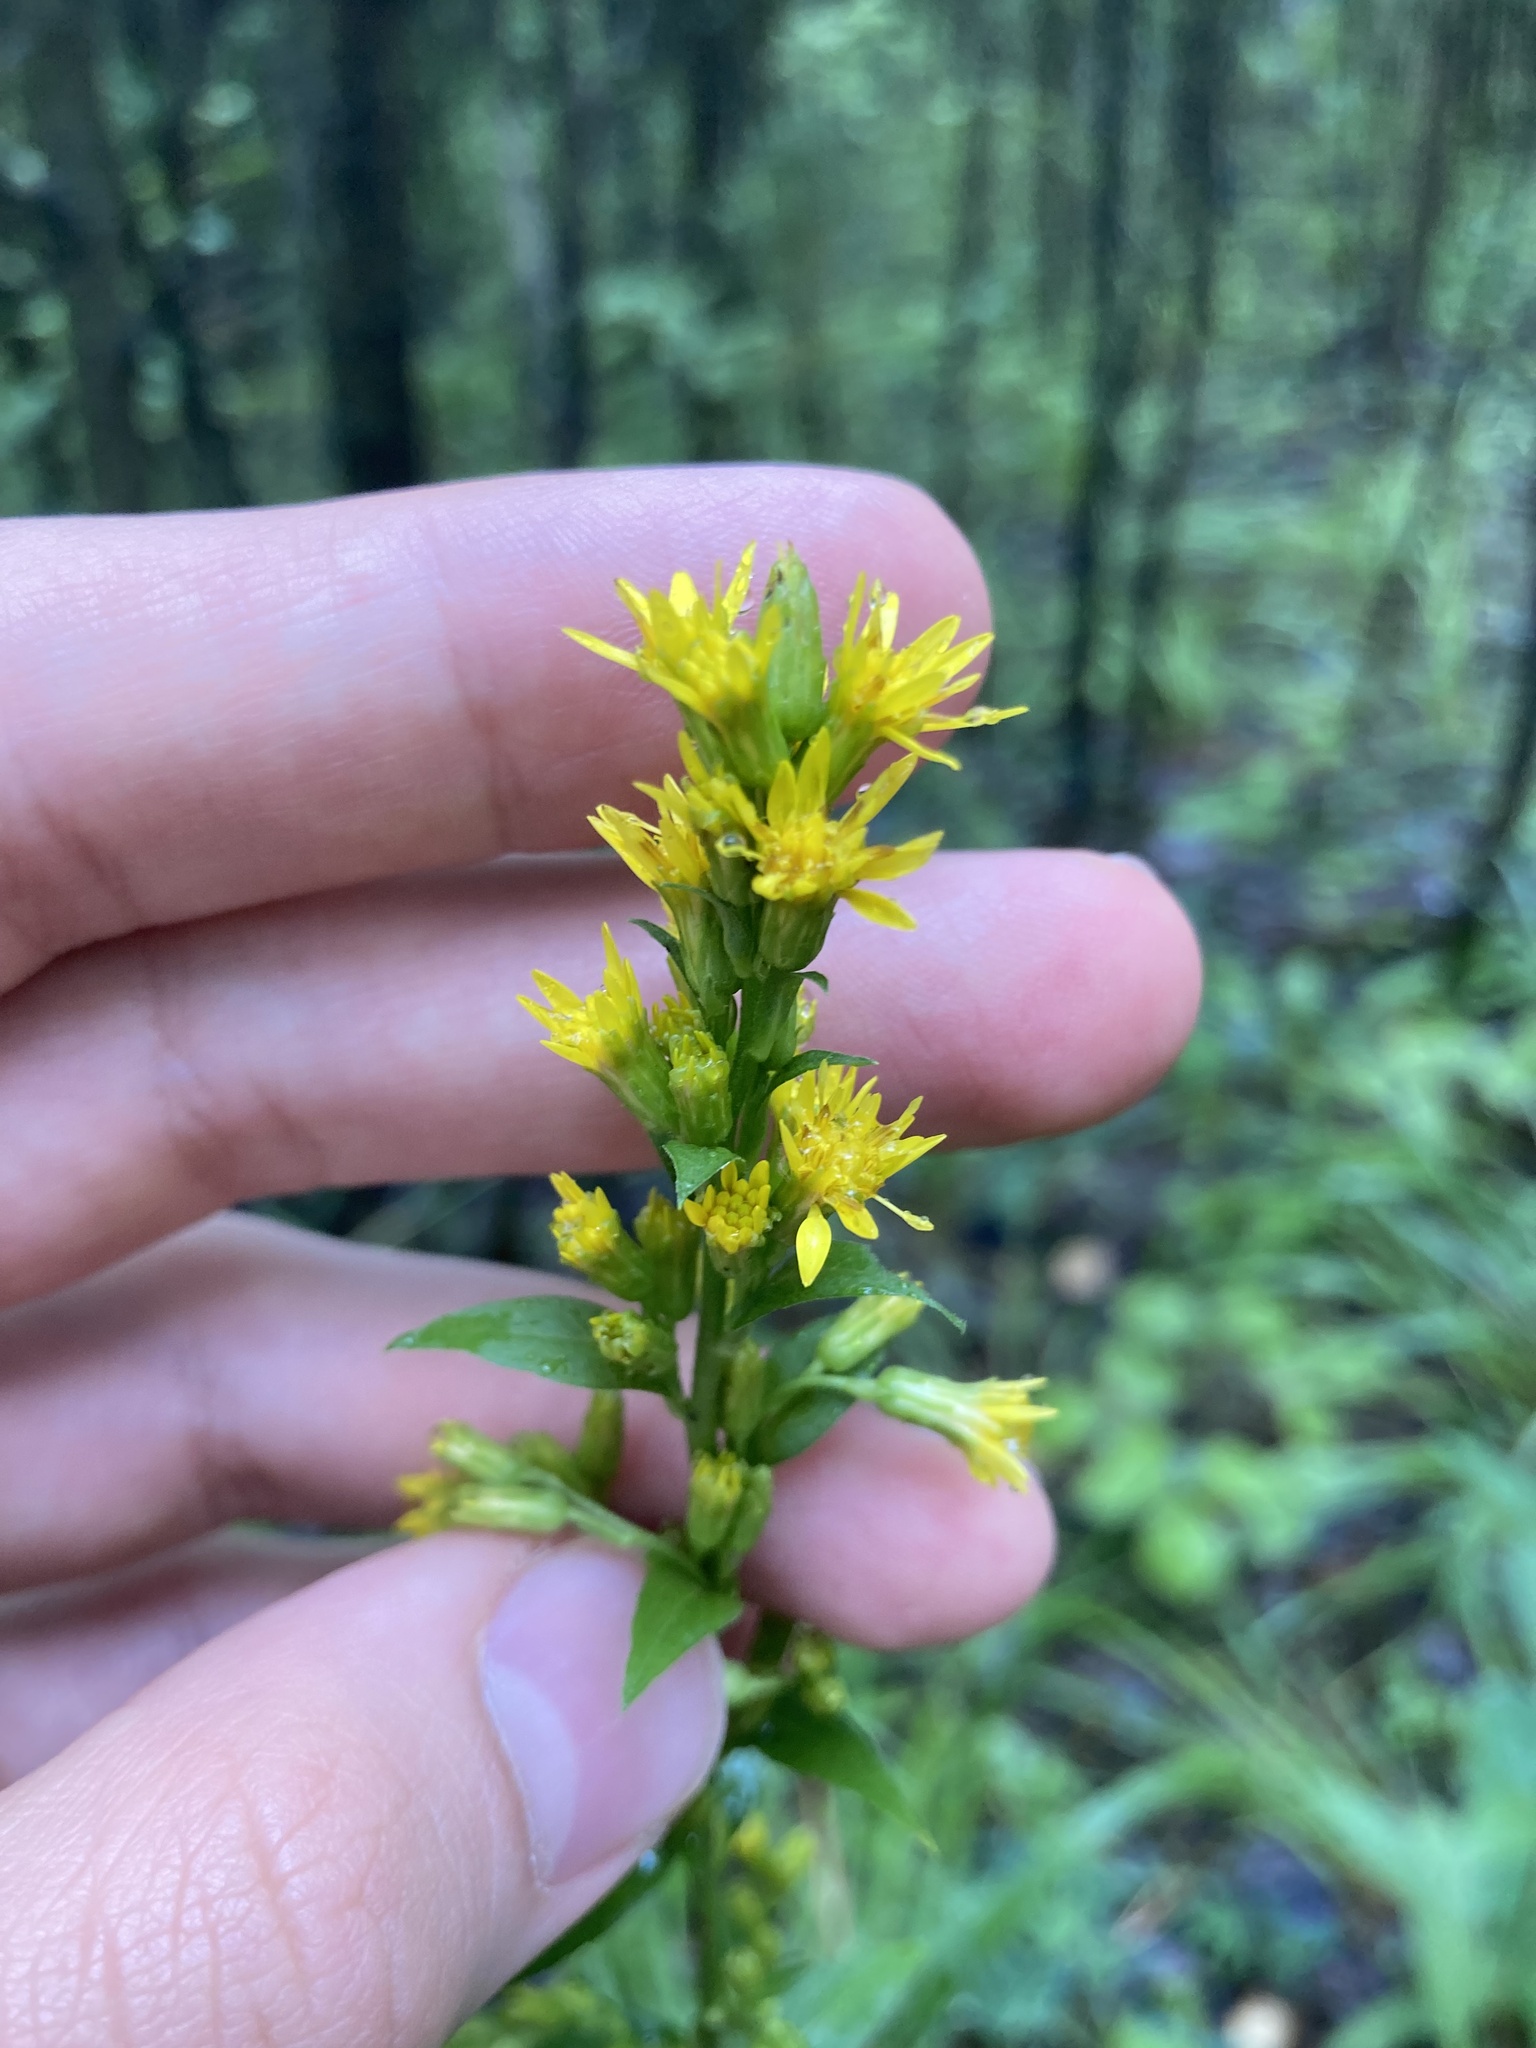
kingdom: Plantae
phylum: Tracheophyta
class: Magnoliopsida
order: Asterales
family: Asteraceae
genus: Solidago
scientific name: Solidago virgaurea
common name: Goldenrod
